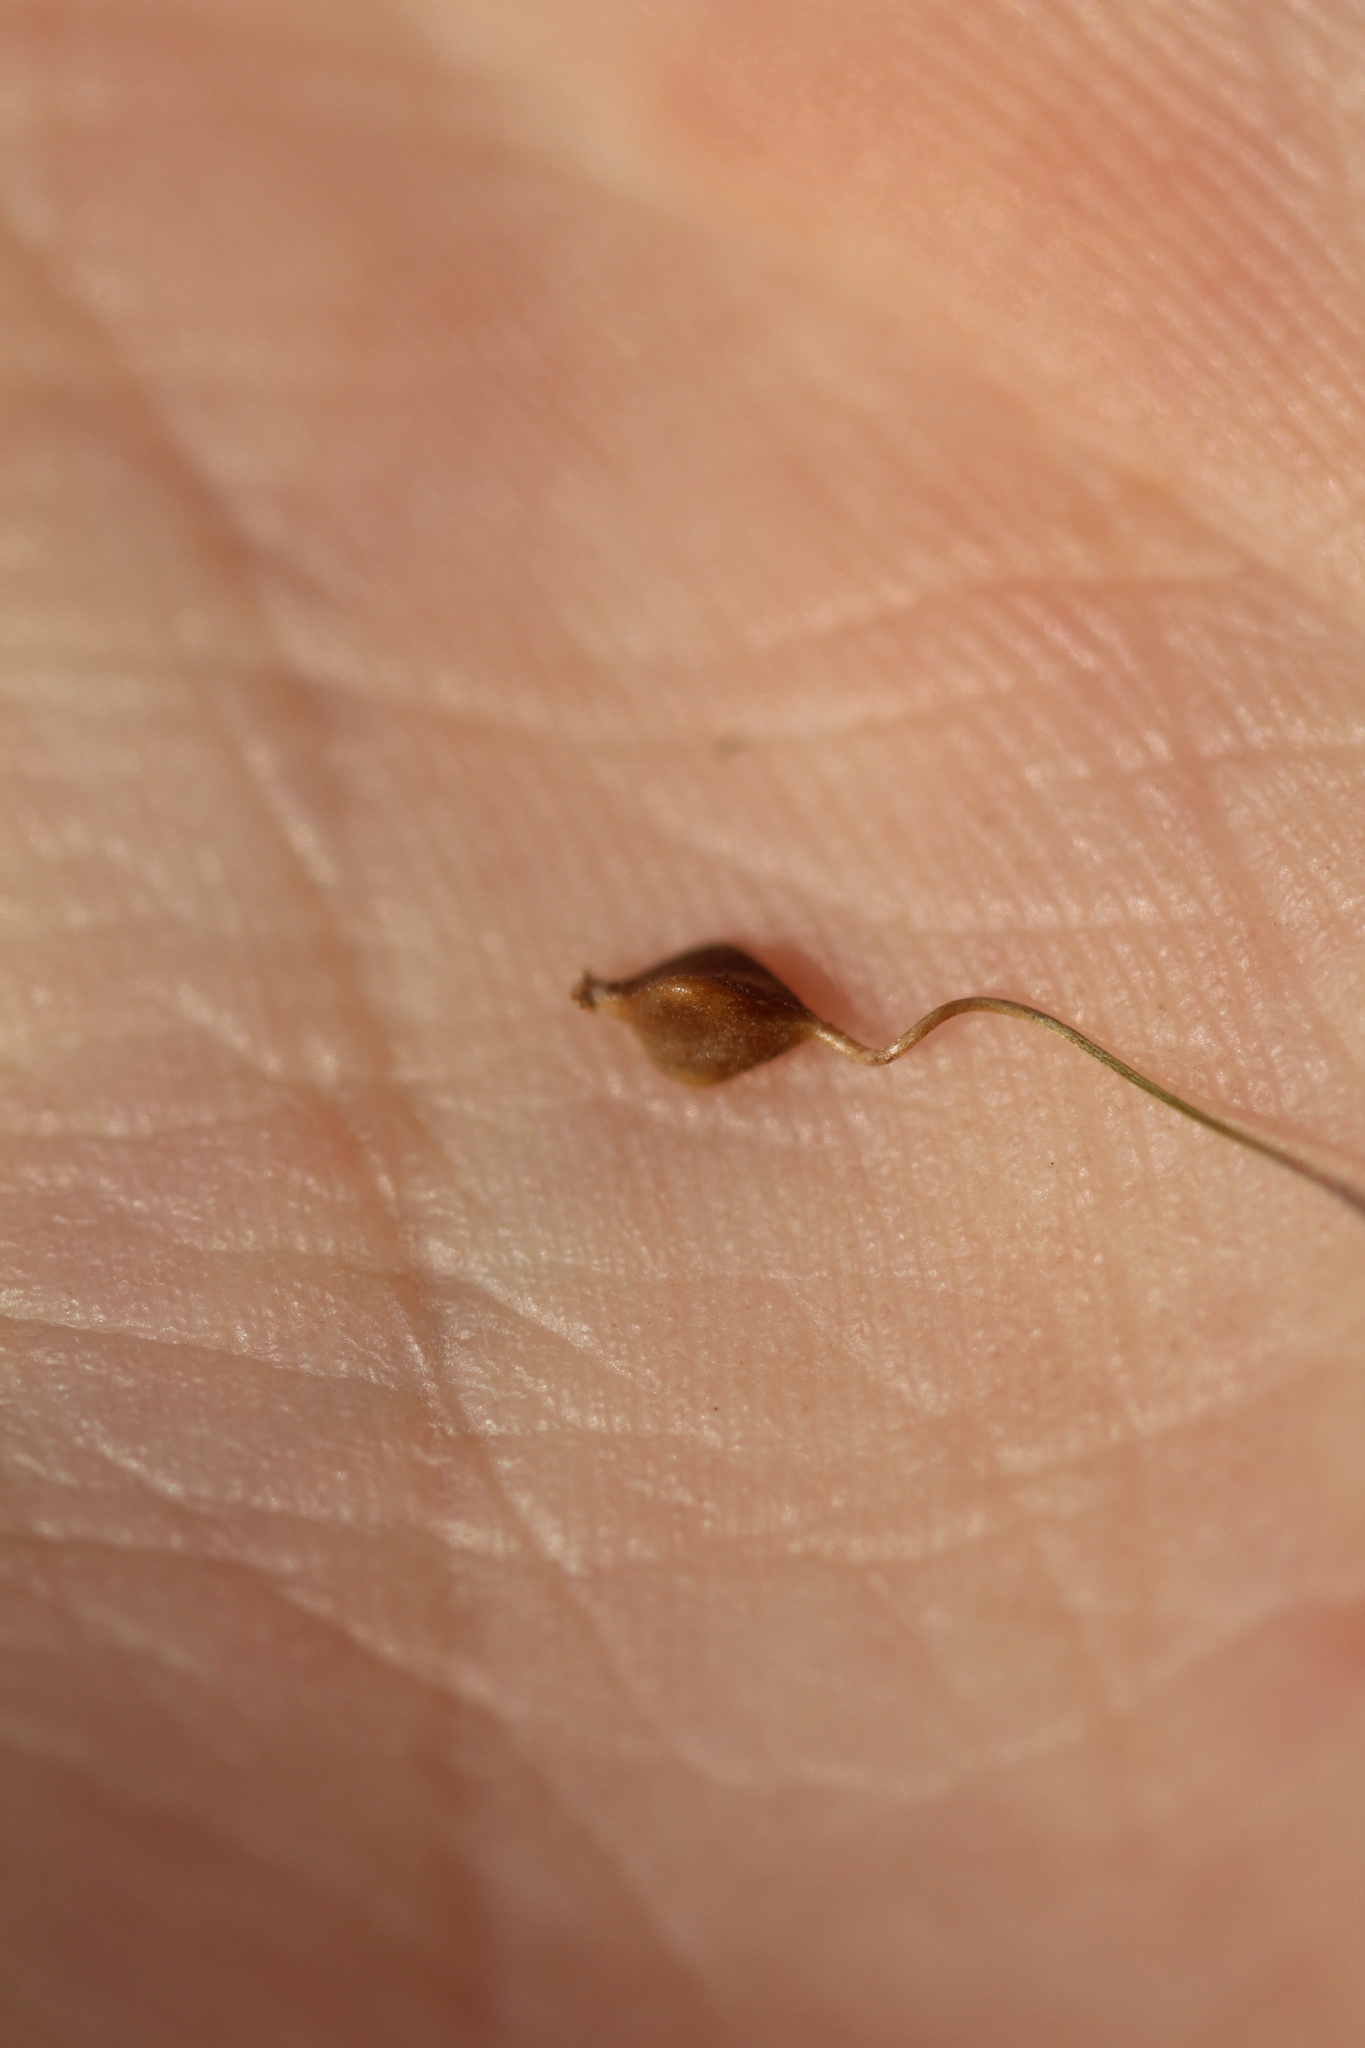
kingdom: Plantae
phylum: Tracheophyta
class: Liliopsida
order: Poales
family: Cyperaceae
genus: Carex
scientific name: Carex lupulina
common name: Hop sedge
